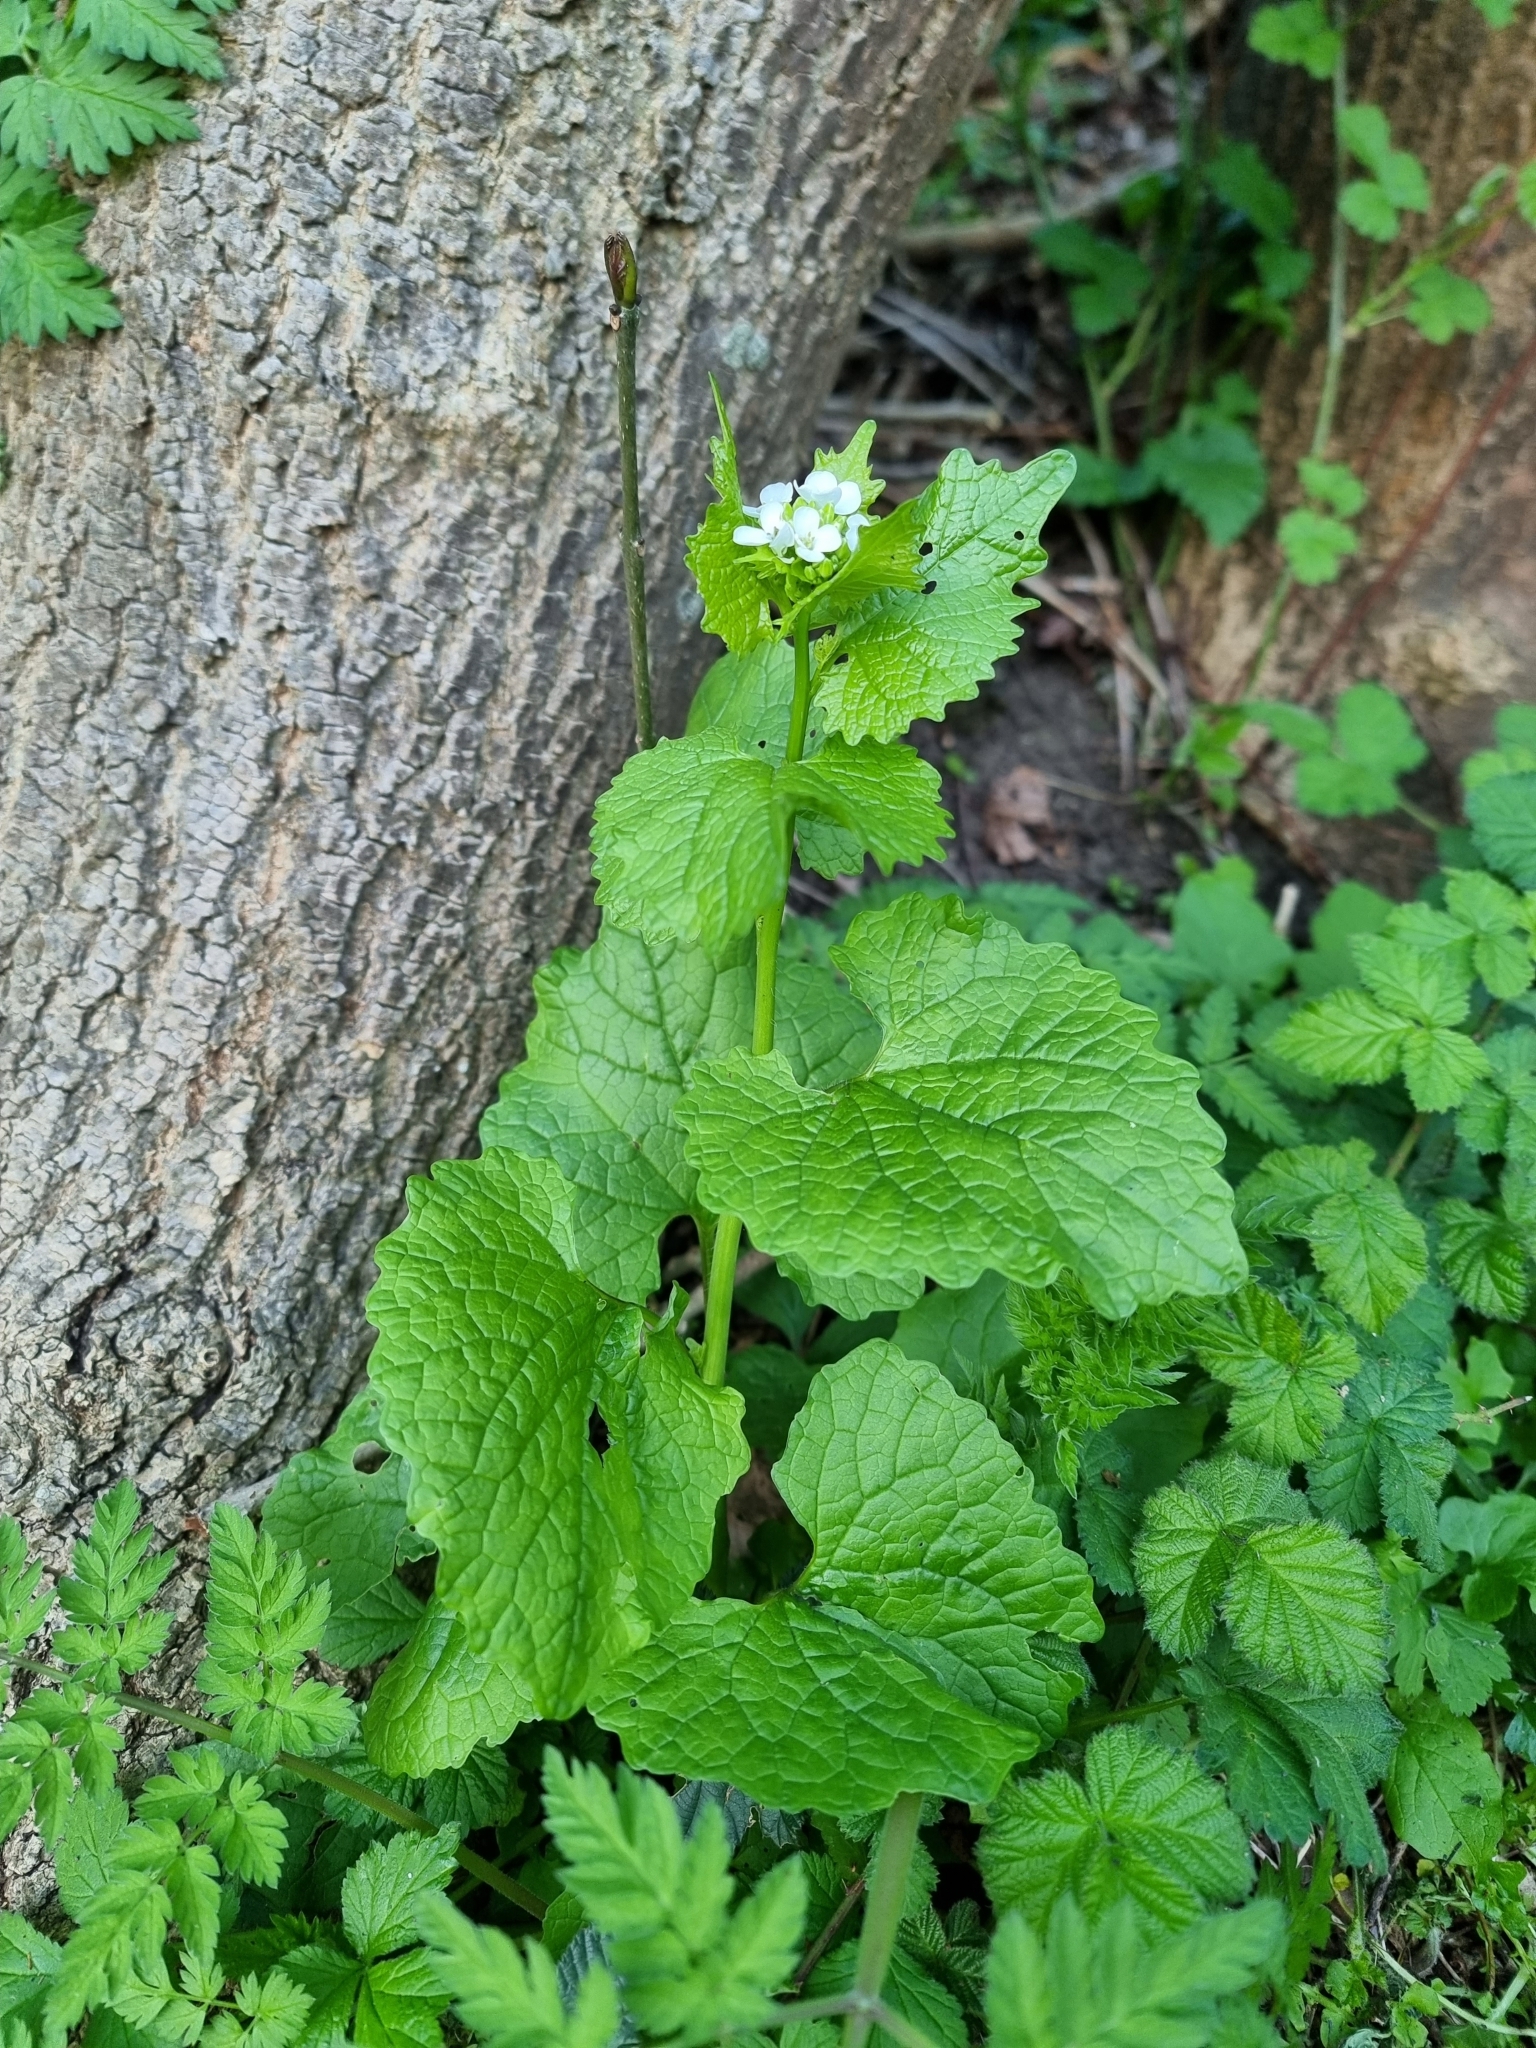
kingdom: Plantae
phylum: Tracheophyta
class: Magnoliopsida
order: Brassicales
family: Brassicaceae
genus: Alliaria
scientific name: Alliaria petiolata
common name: Garlic mustard
